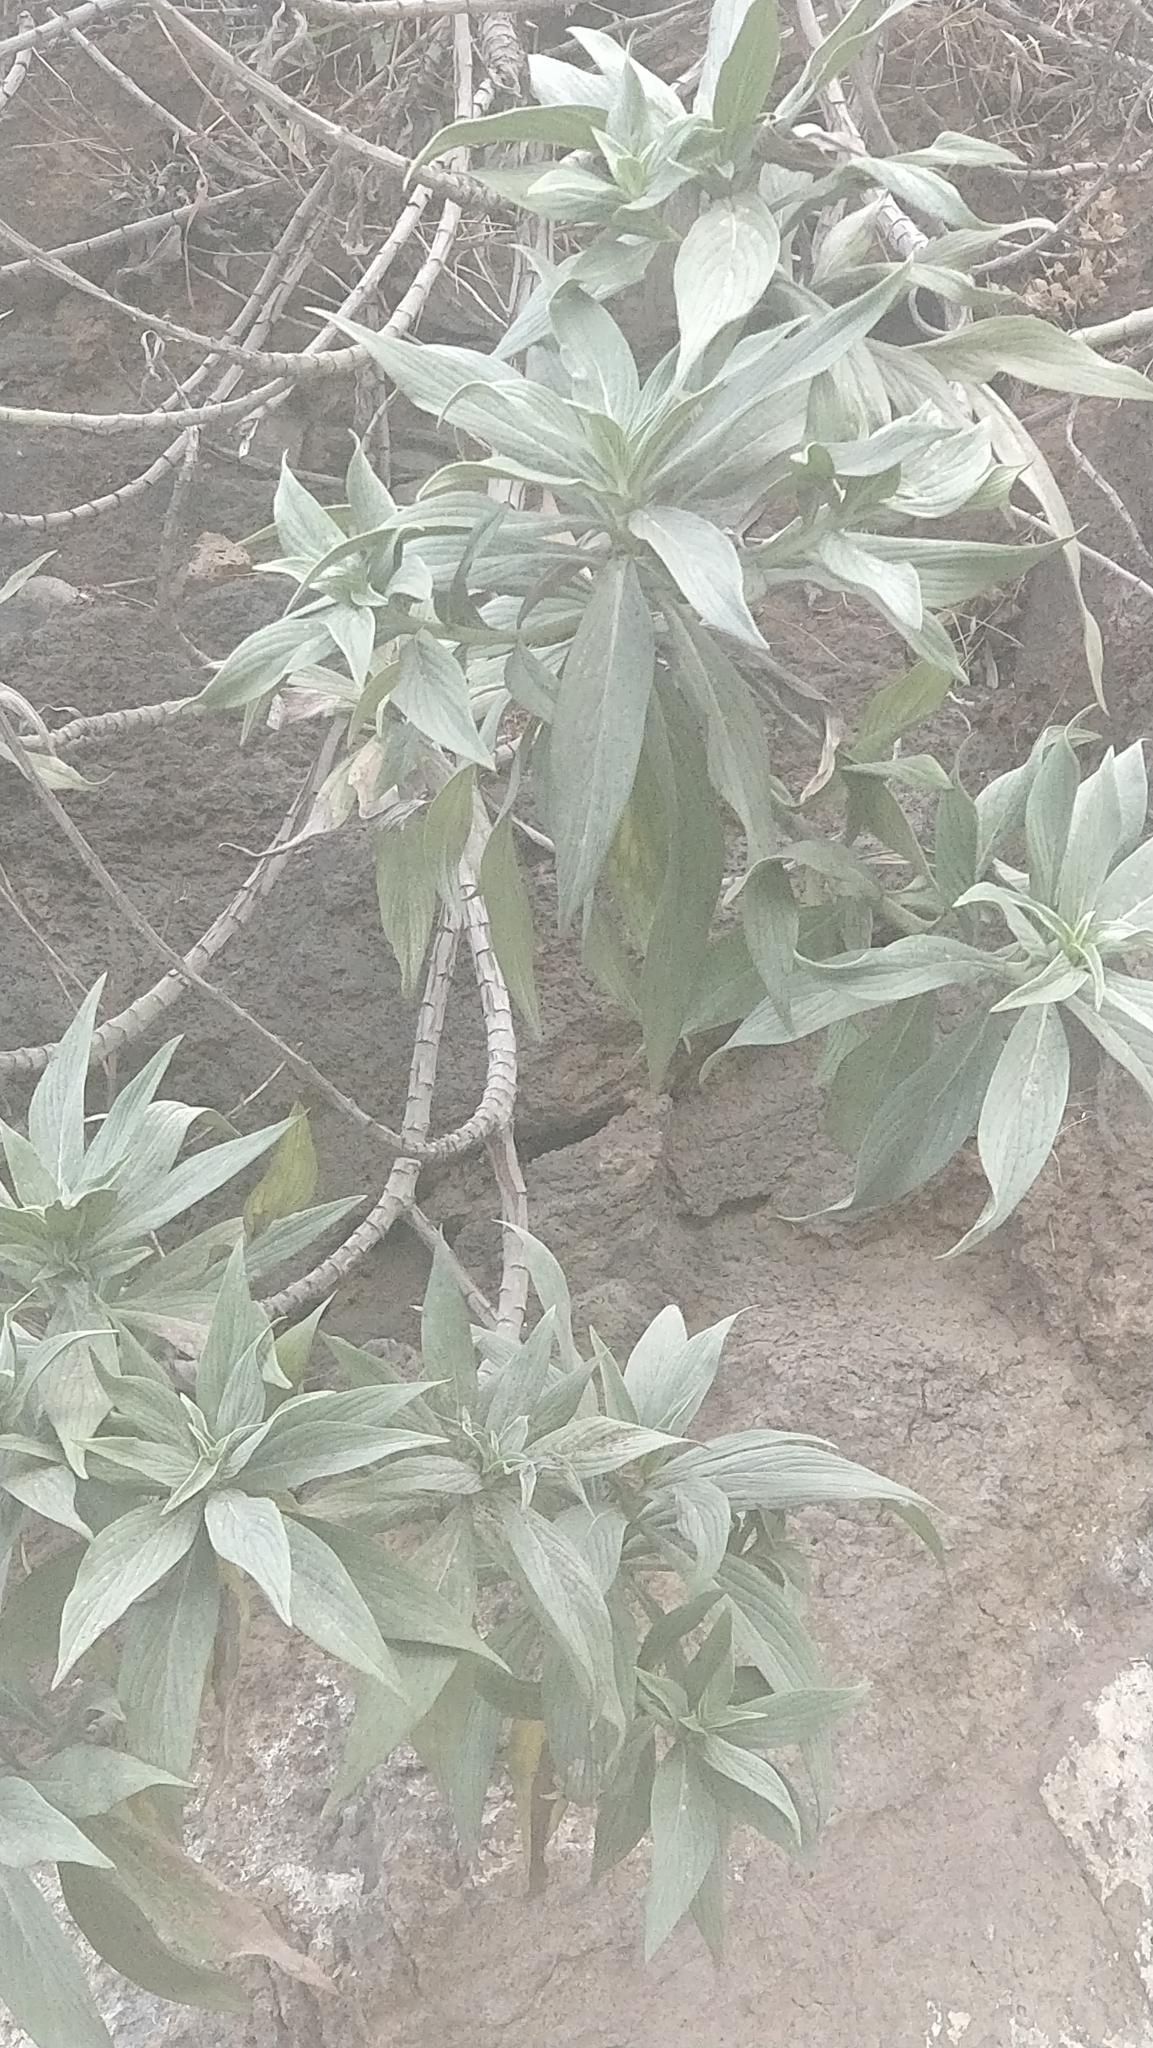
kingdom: Plantae
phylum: Tracheophyta
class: Magnoliopsida
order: Boraginales
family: Boraginaceae
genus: Echium
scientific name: Echium nervosum
